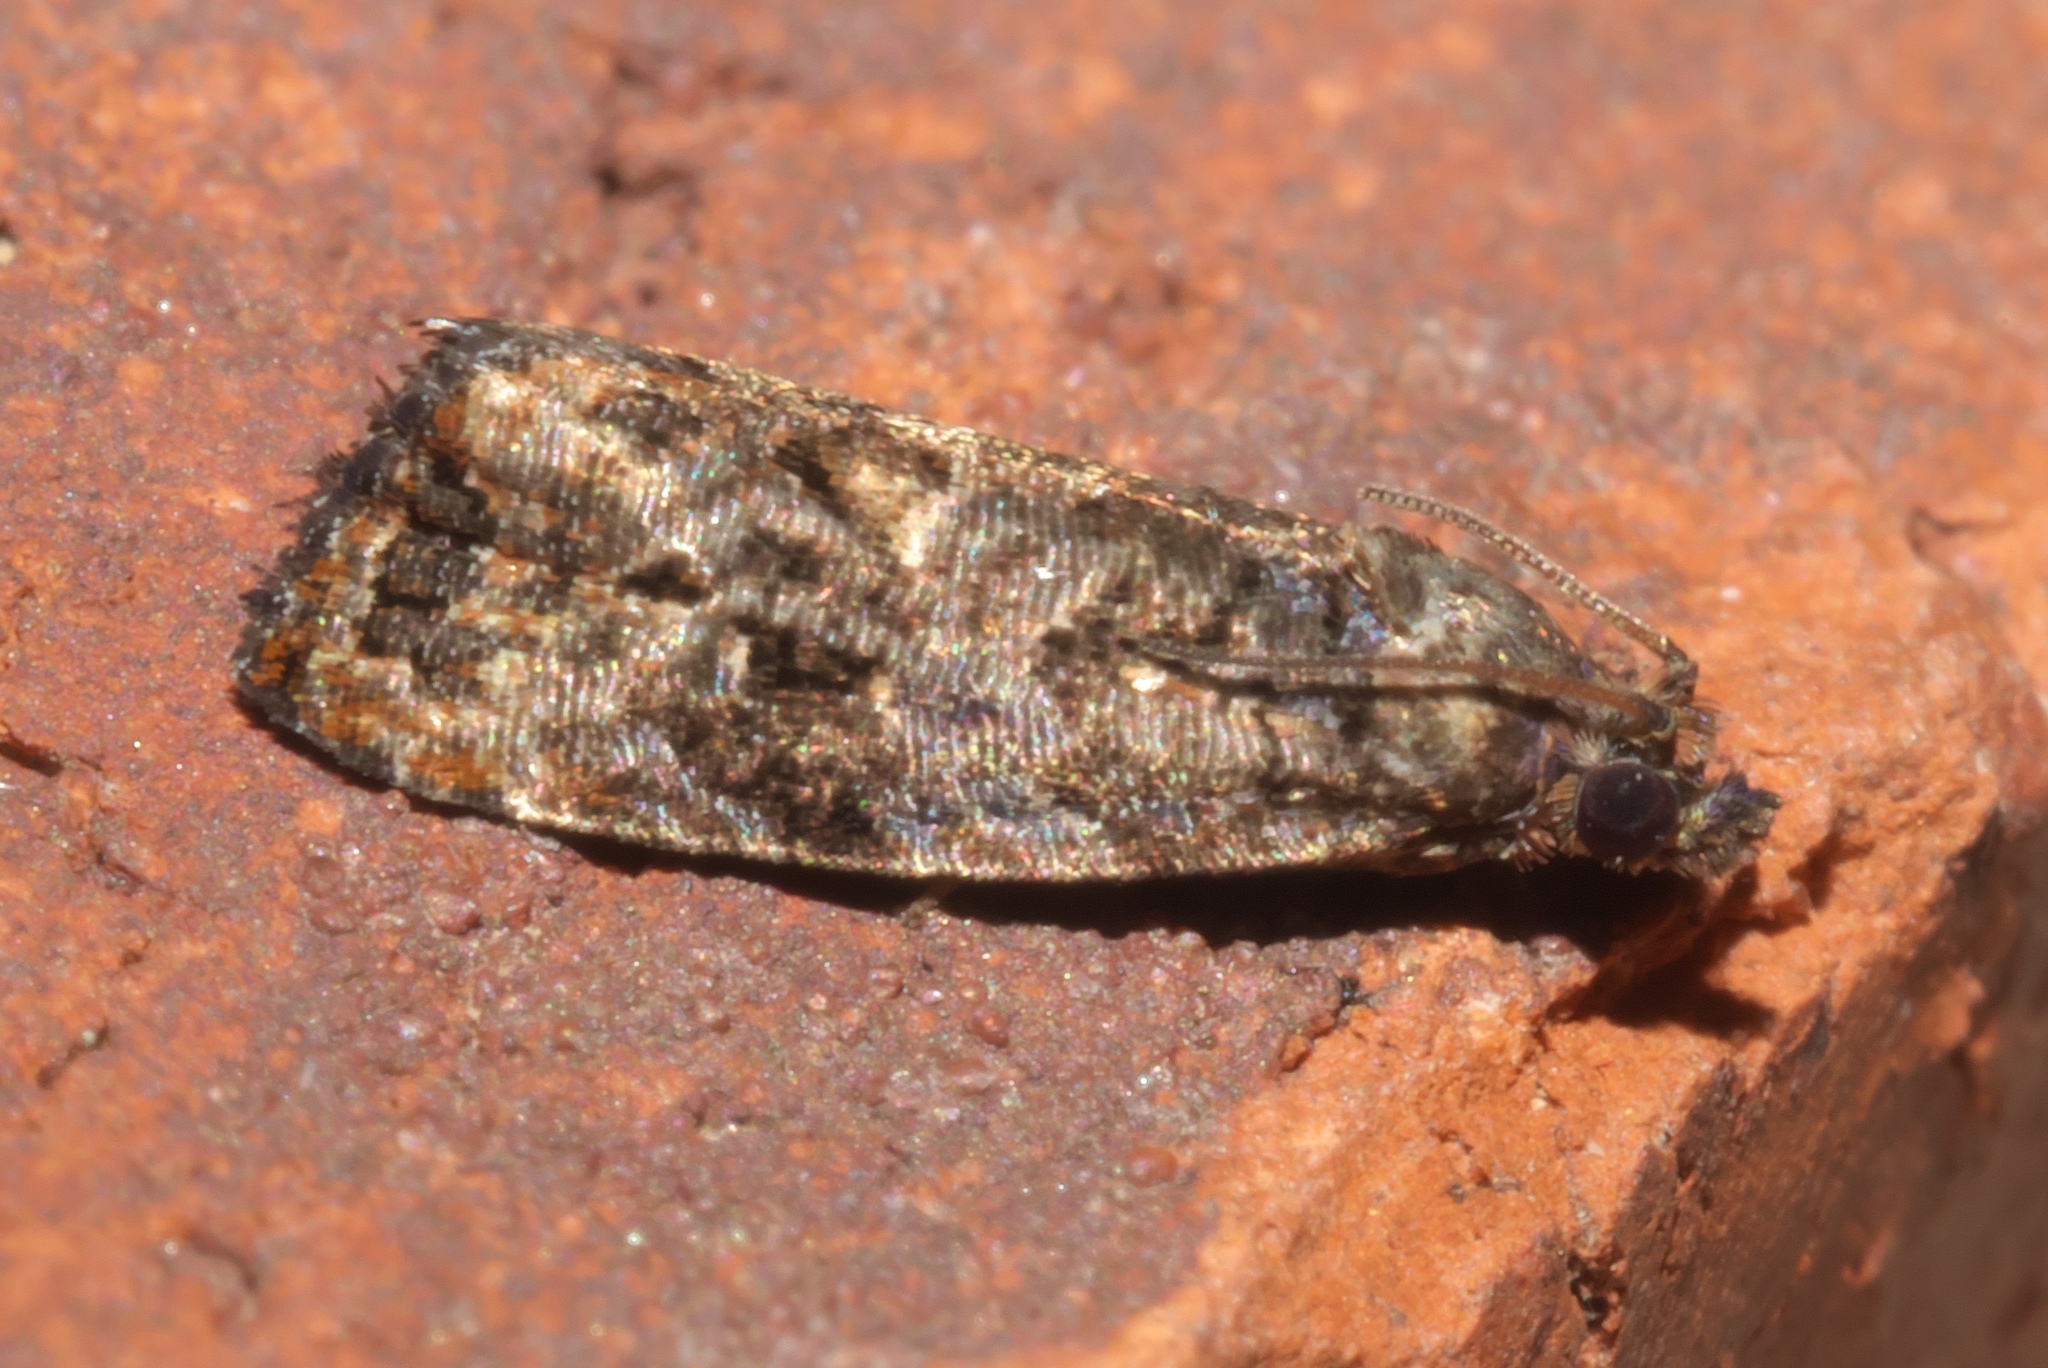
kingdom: Animalia
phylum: Arthropoda
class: Insecta
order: Lepidoptera
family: Tortricidae
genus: Endothenia
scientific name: Endothenia hebesana
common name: Verbena bud moth
